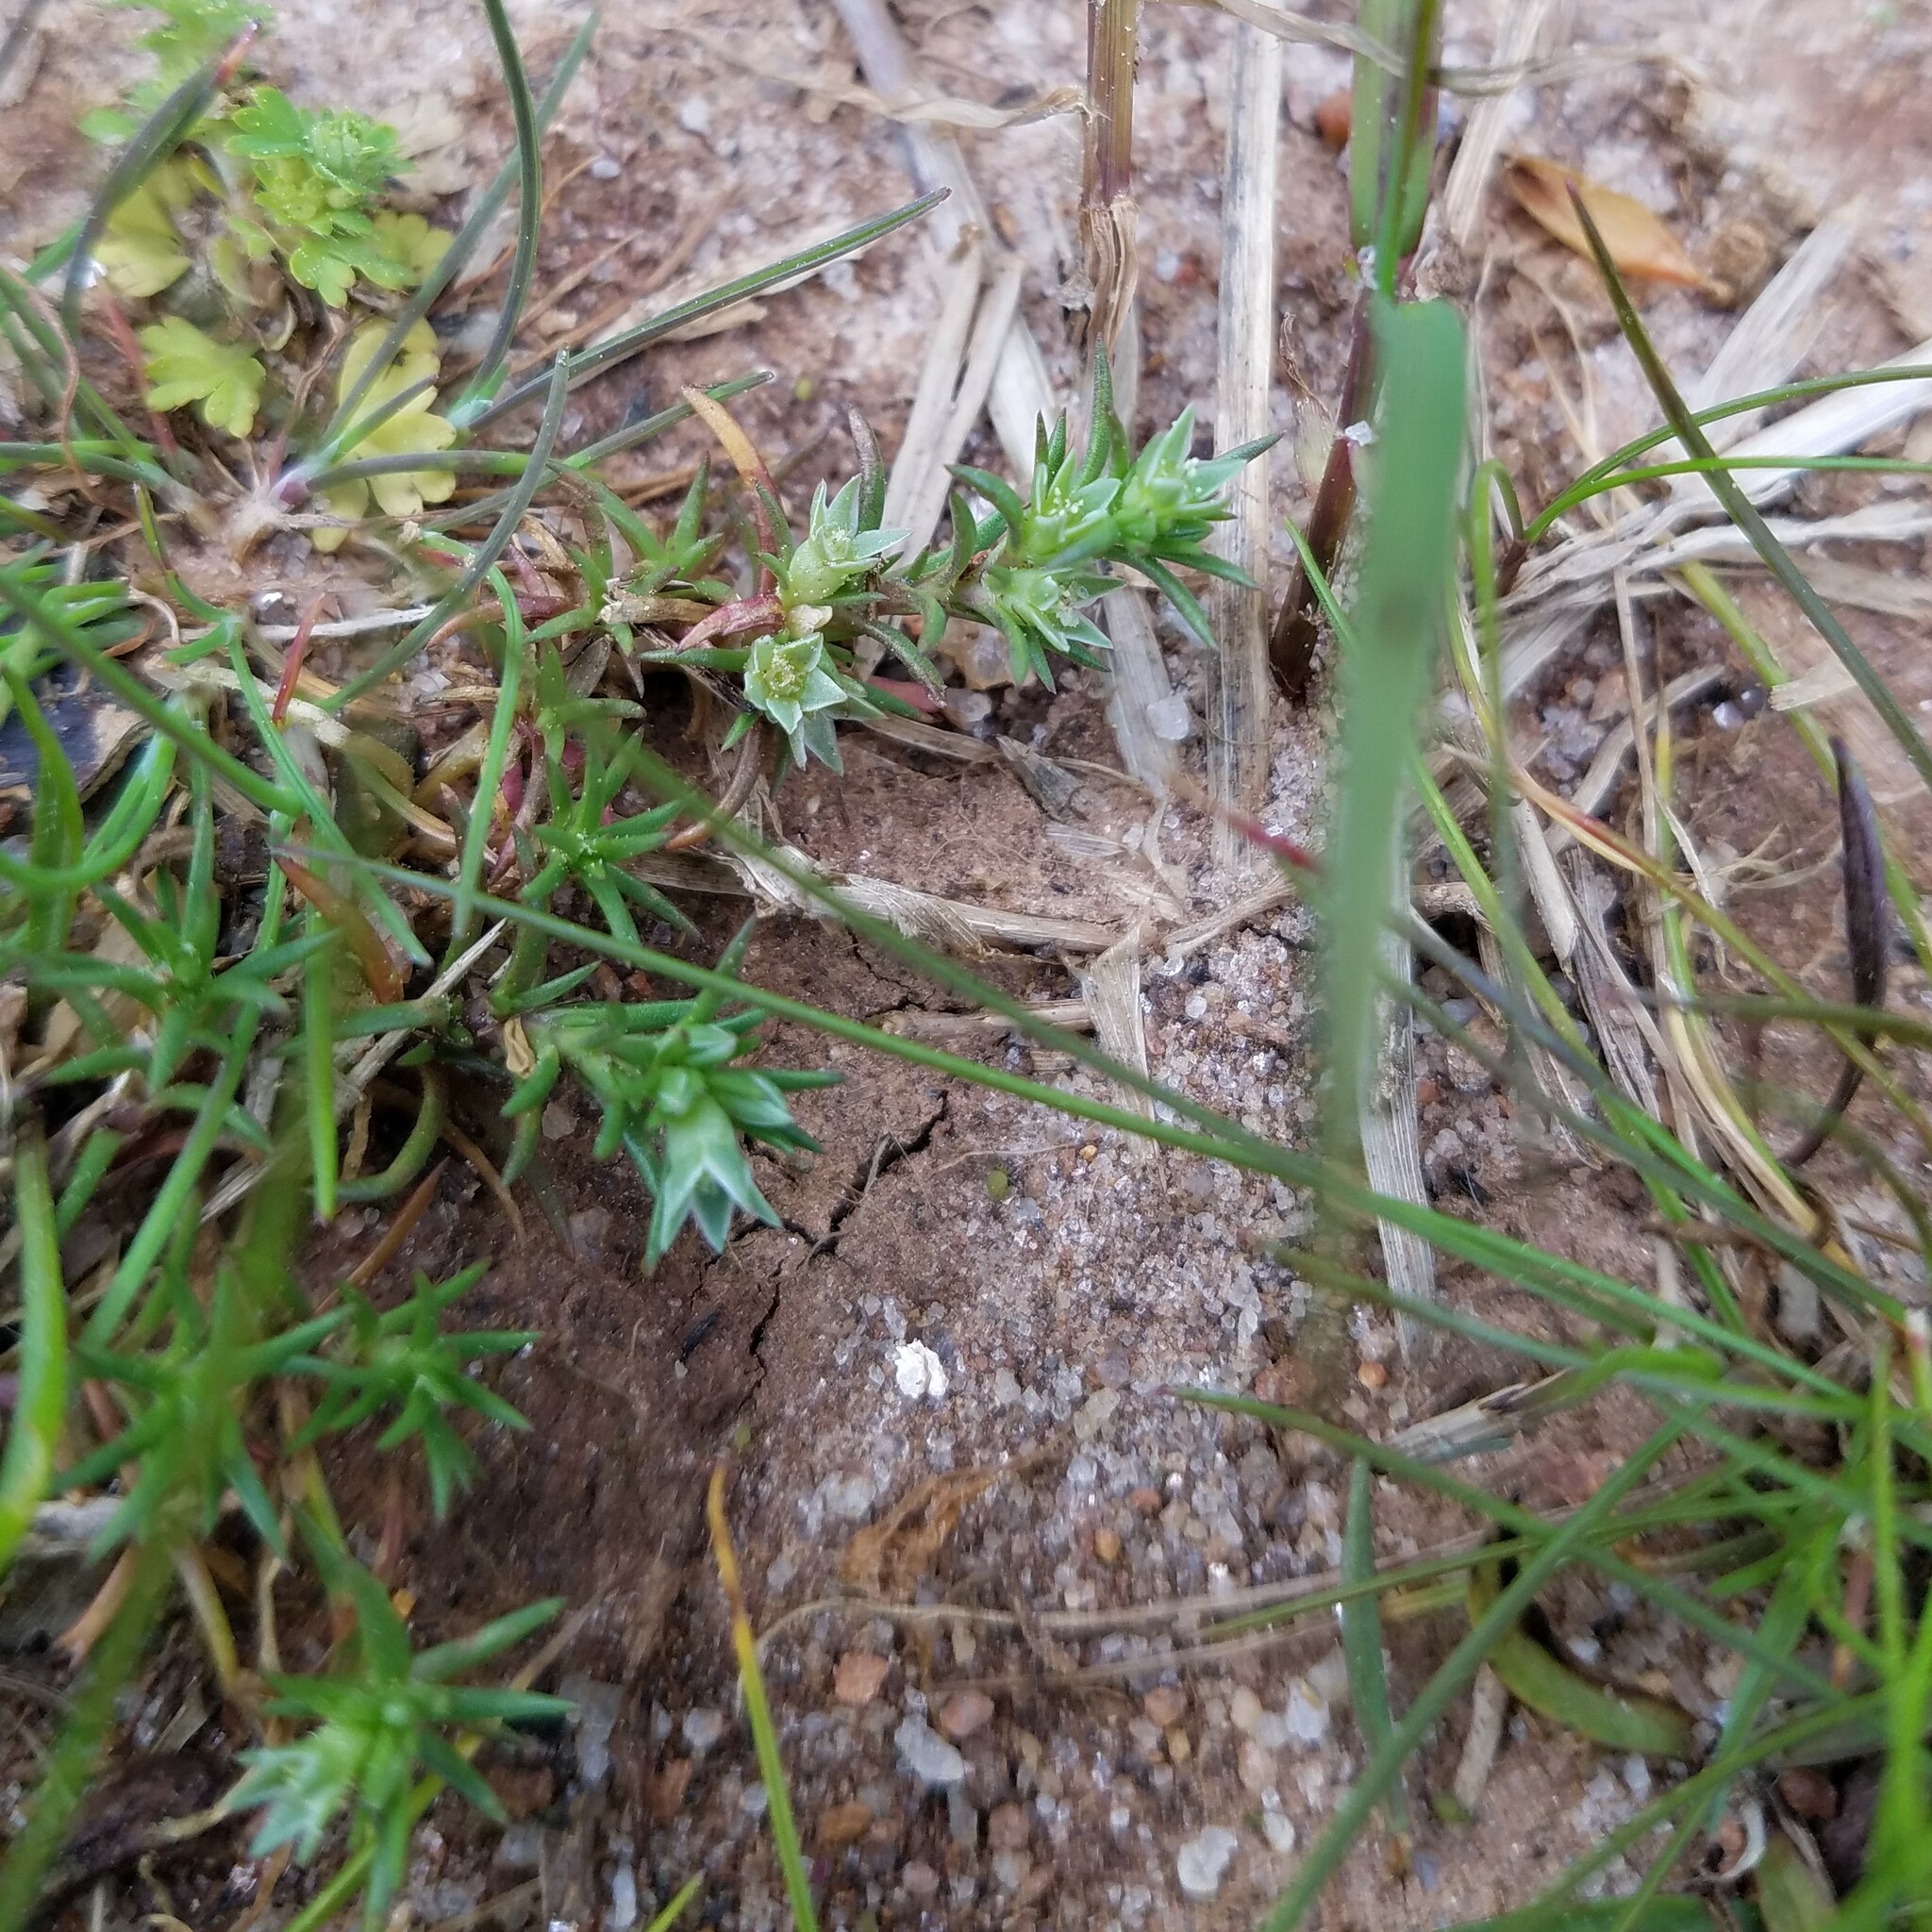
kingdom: Plantae
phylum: Tracheophyta
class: Magnoliopsida
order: Caryophyllales
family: Caryophyllaceae
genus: Scleranthus
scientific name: Scleranthus annuus
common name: Annual knawel
